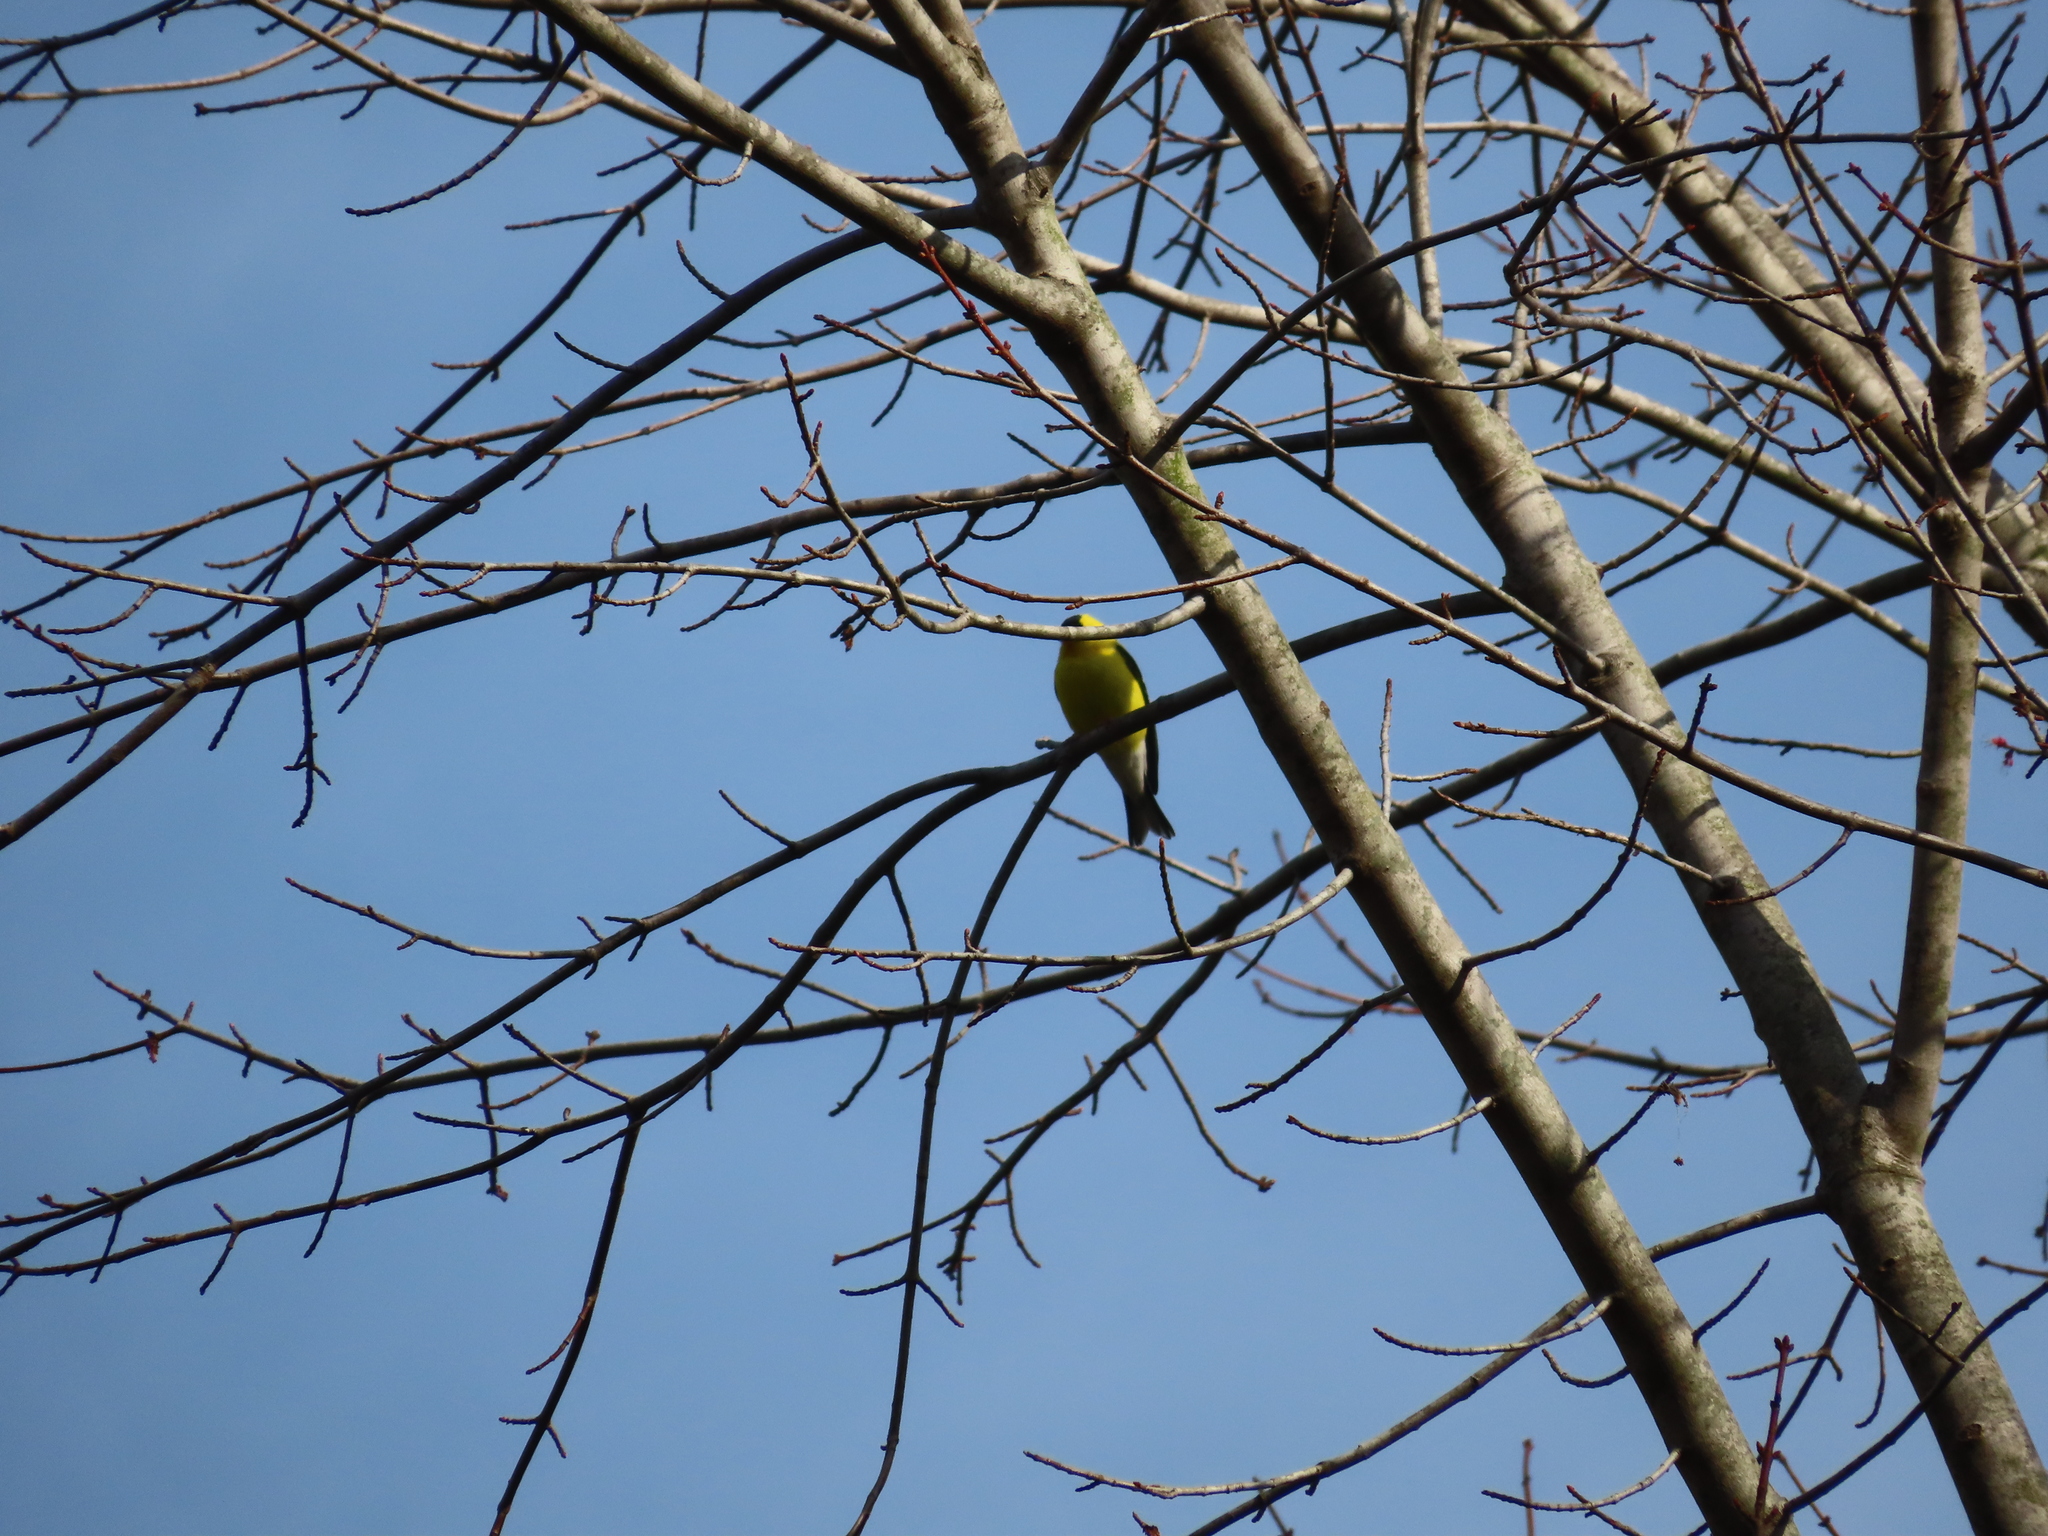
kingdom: Animalia
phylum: Chordata
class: Aves
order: Passeriformes
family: Fringillidae
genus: Spinus
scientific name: Spinus tristis
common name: American goldfinch
